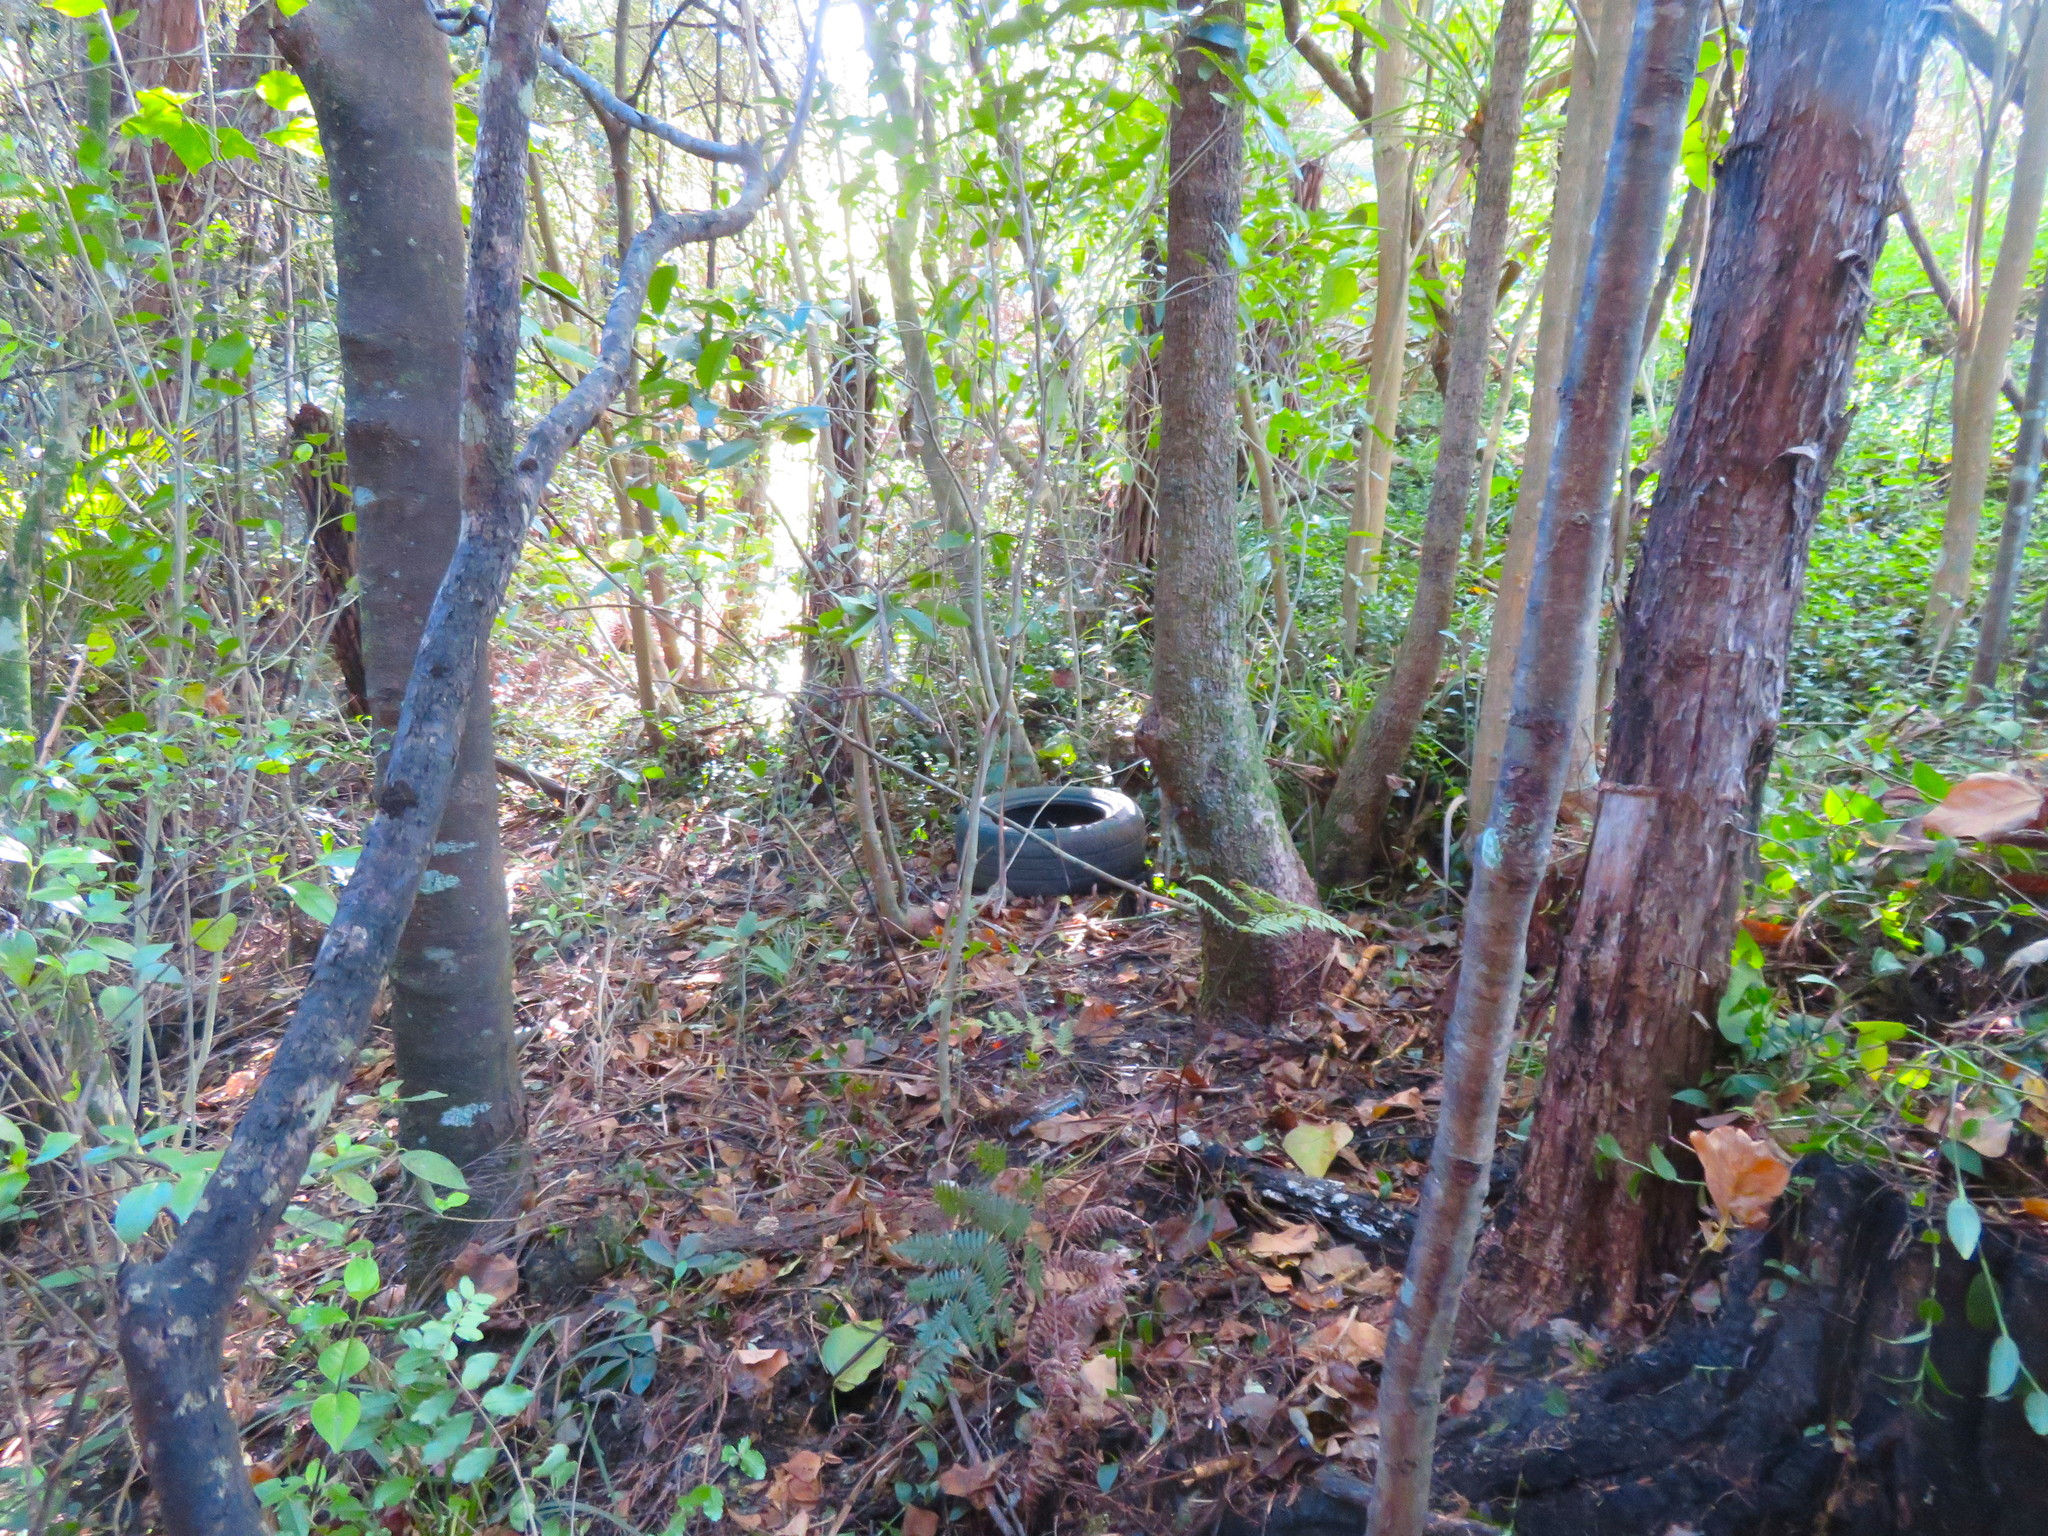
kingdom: Plantae
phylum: Tracheophyta
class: Liliopsida
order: Commelinales
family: Commelinaceae
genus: Tradescantia
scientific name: Tradescantia fluminensis
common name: Wandering-jew
